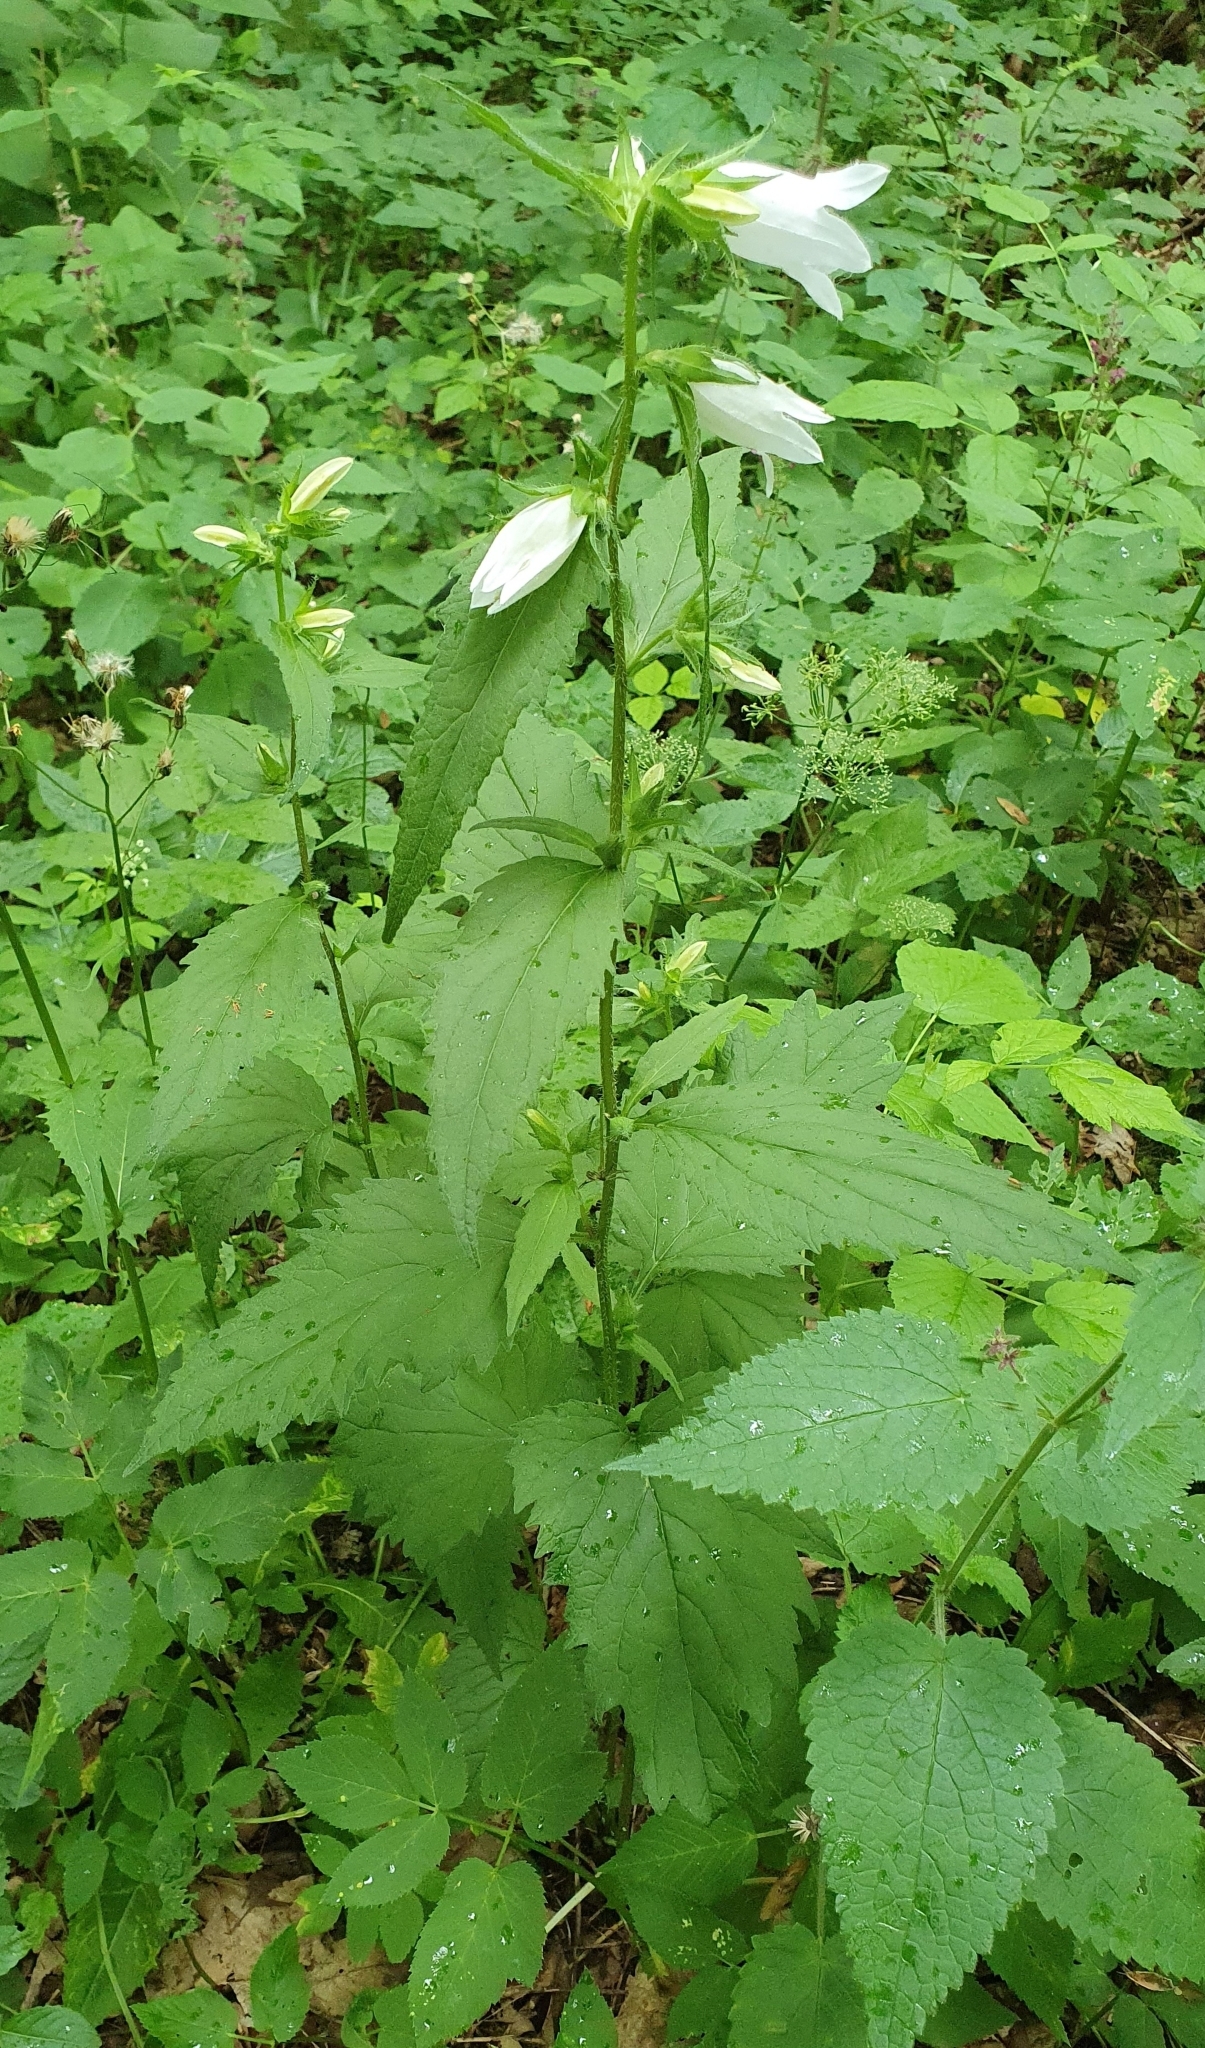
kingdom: Plantae
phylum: Tracheophyta
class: Magnoliopsida
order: Asterales
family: Campanulaceae
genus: Campanula
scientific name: Campanula trachelium
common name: Nettle-leaved bellflower
